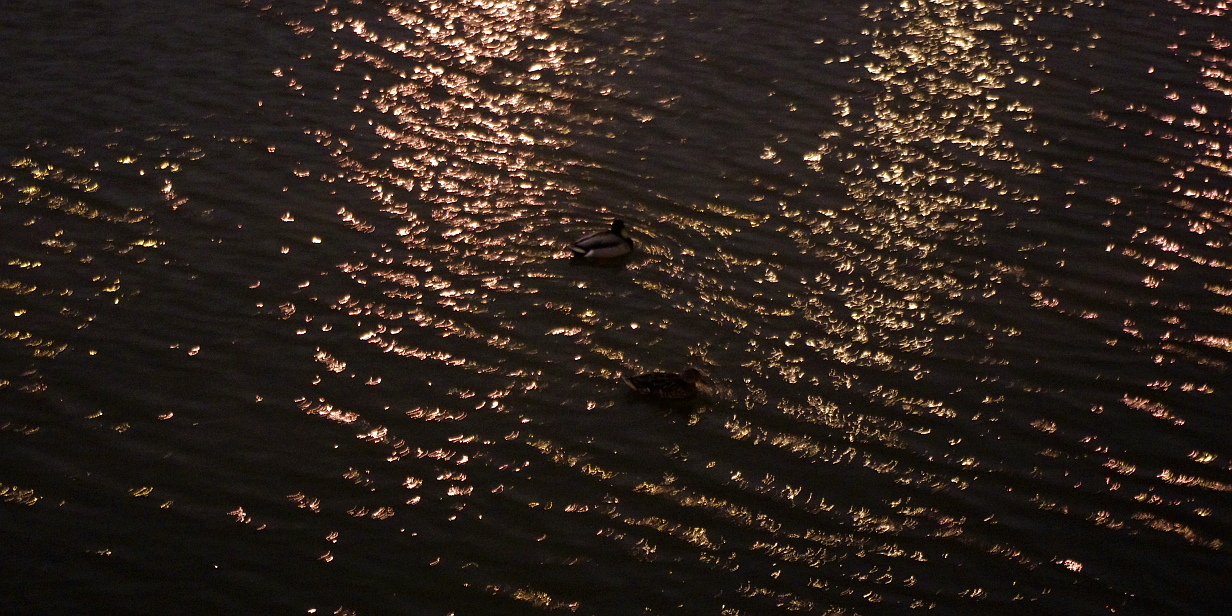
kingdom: Animalia
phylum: Chordata
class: Aves
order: Anseriformes
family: Anatidae
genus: Anas
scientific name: Anas platyrhynchos
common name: Mallard
